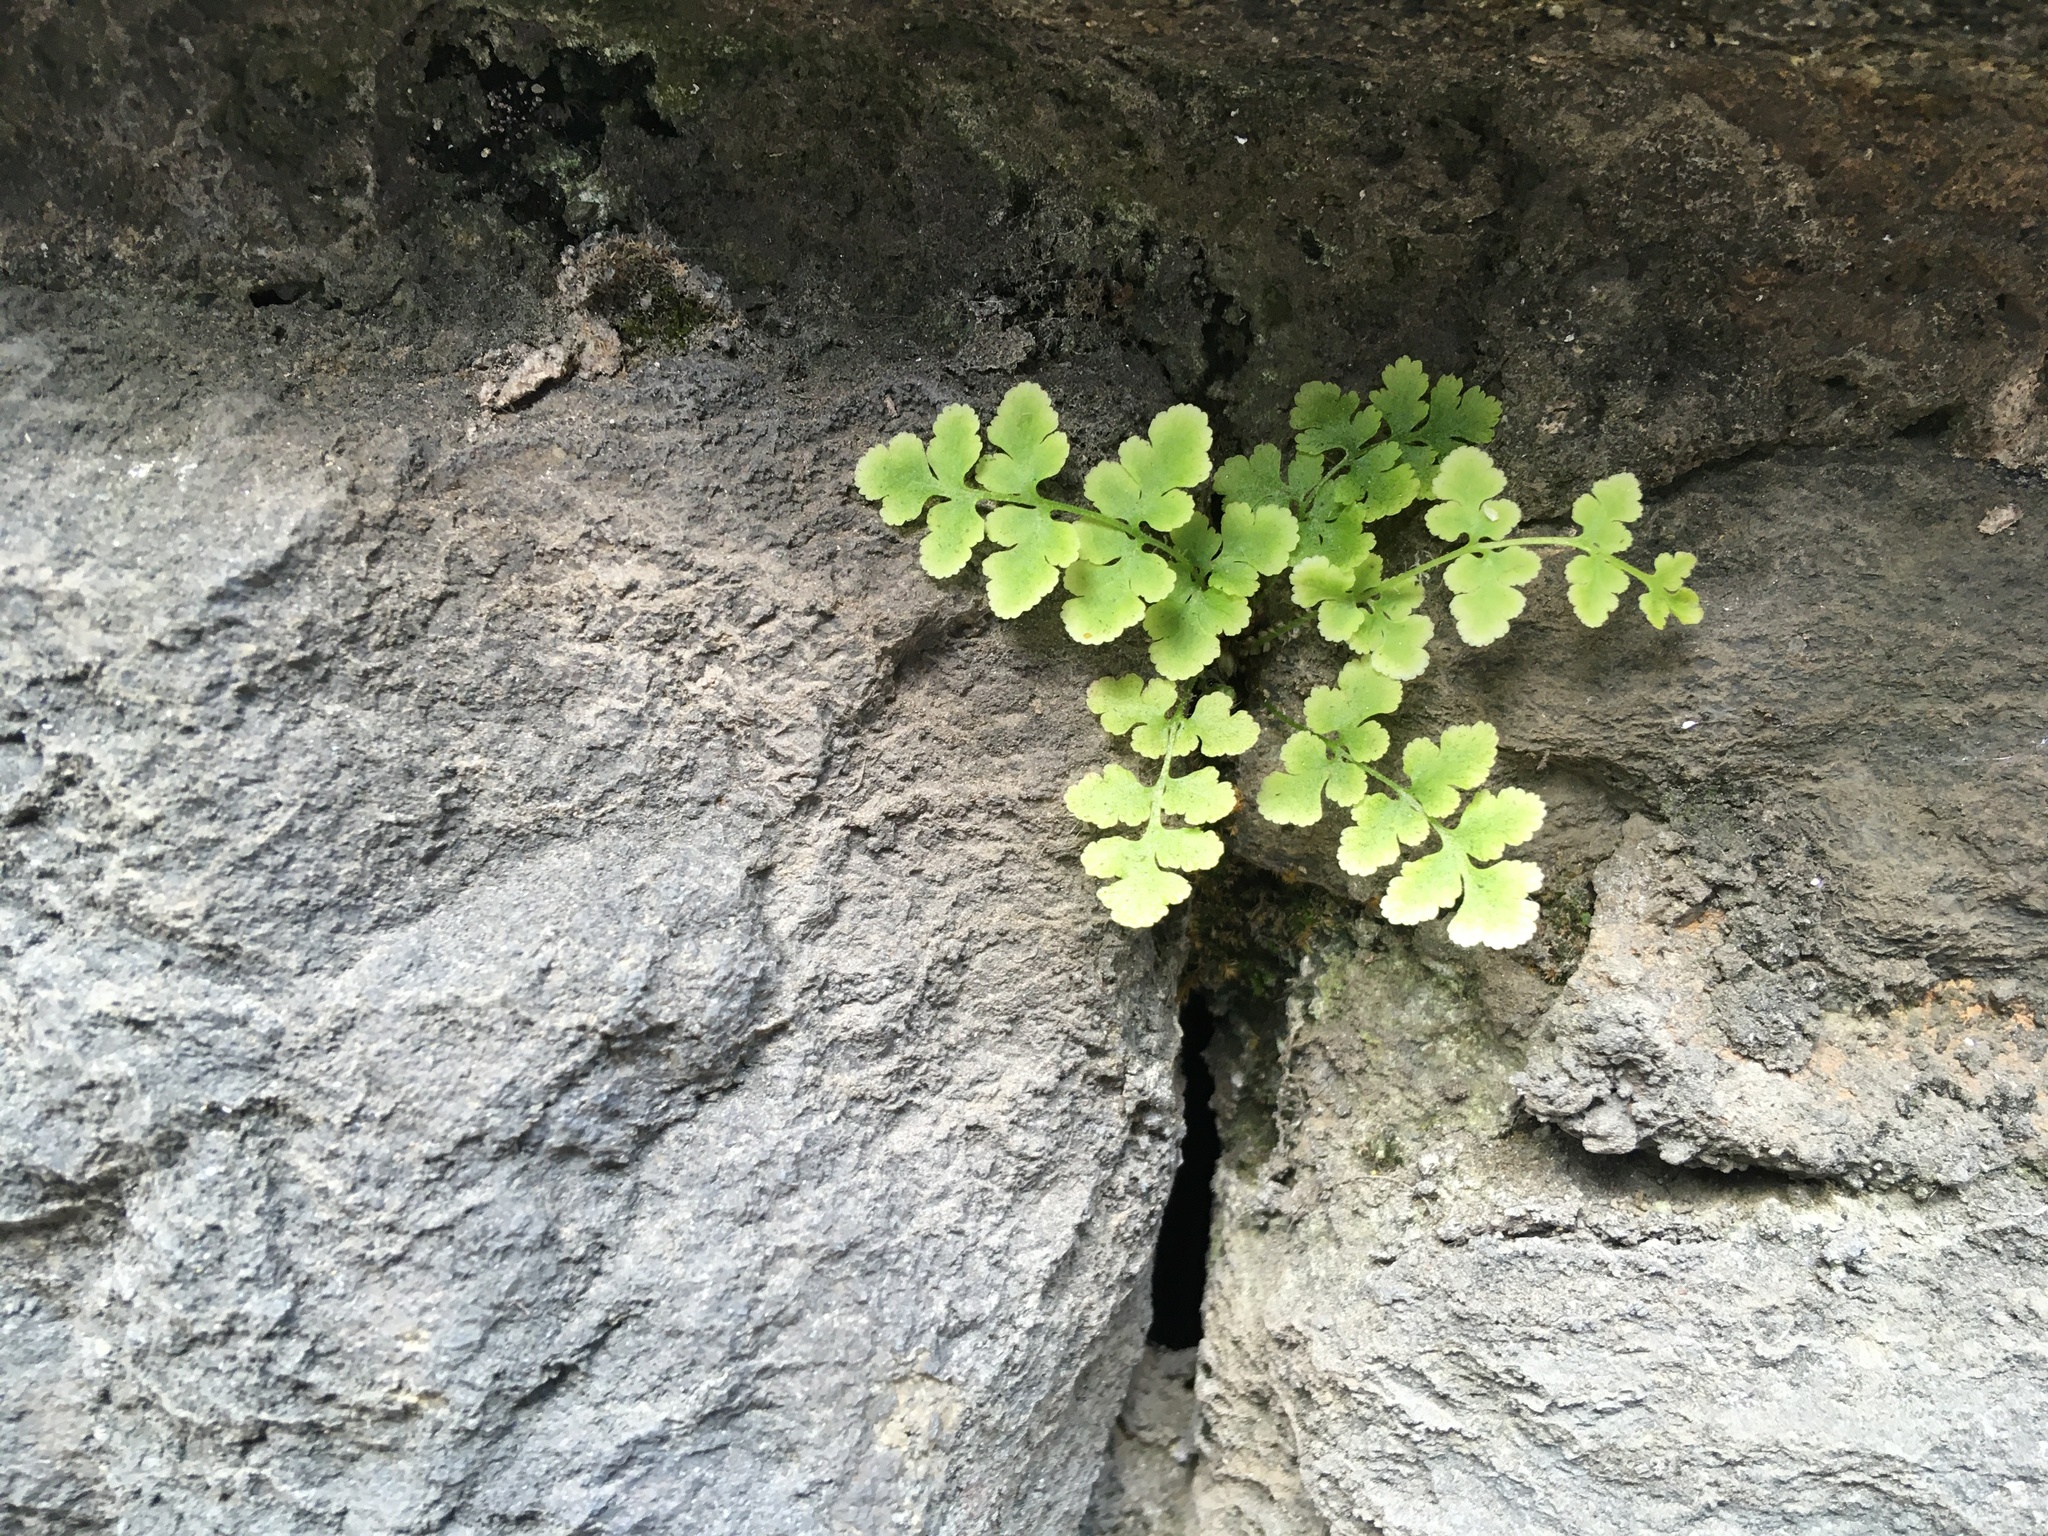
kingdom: Plantae
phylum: Tracheophyta
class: Polypodiopsida
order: Polypodiales
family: Woodsiaceae
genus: Physematium
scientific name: Physematium obtusum
